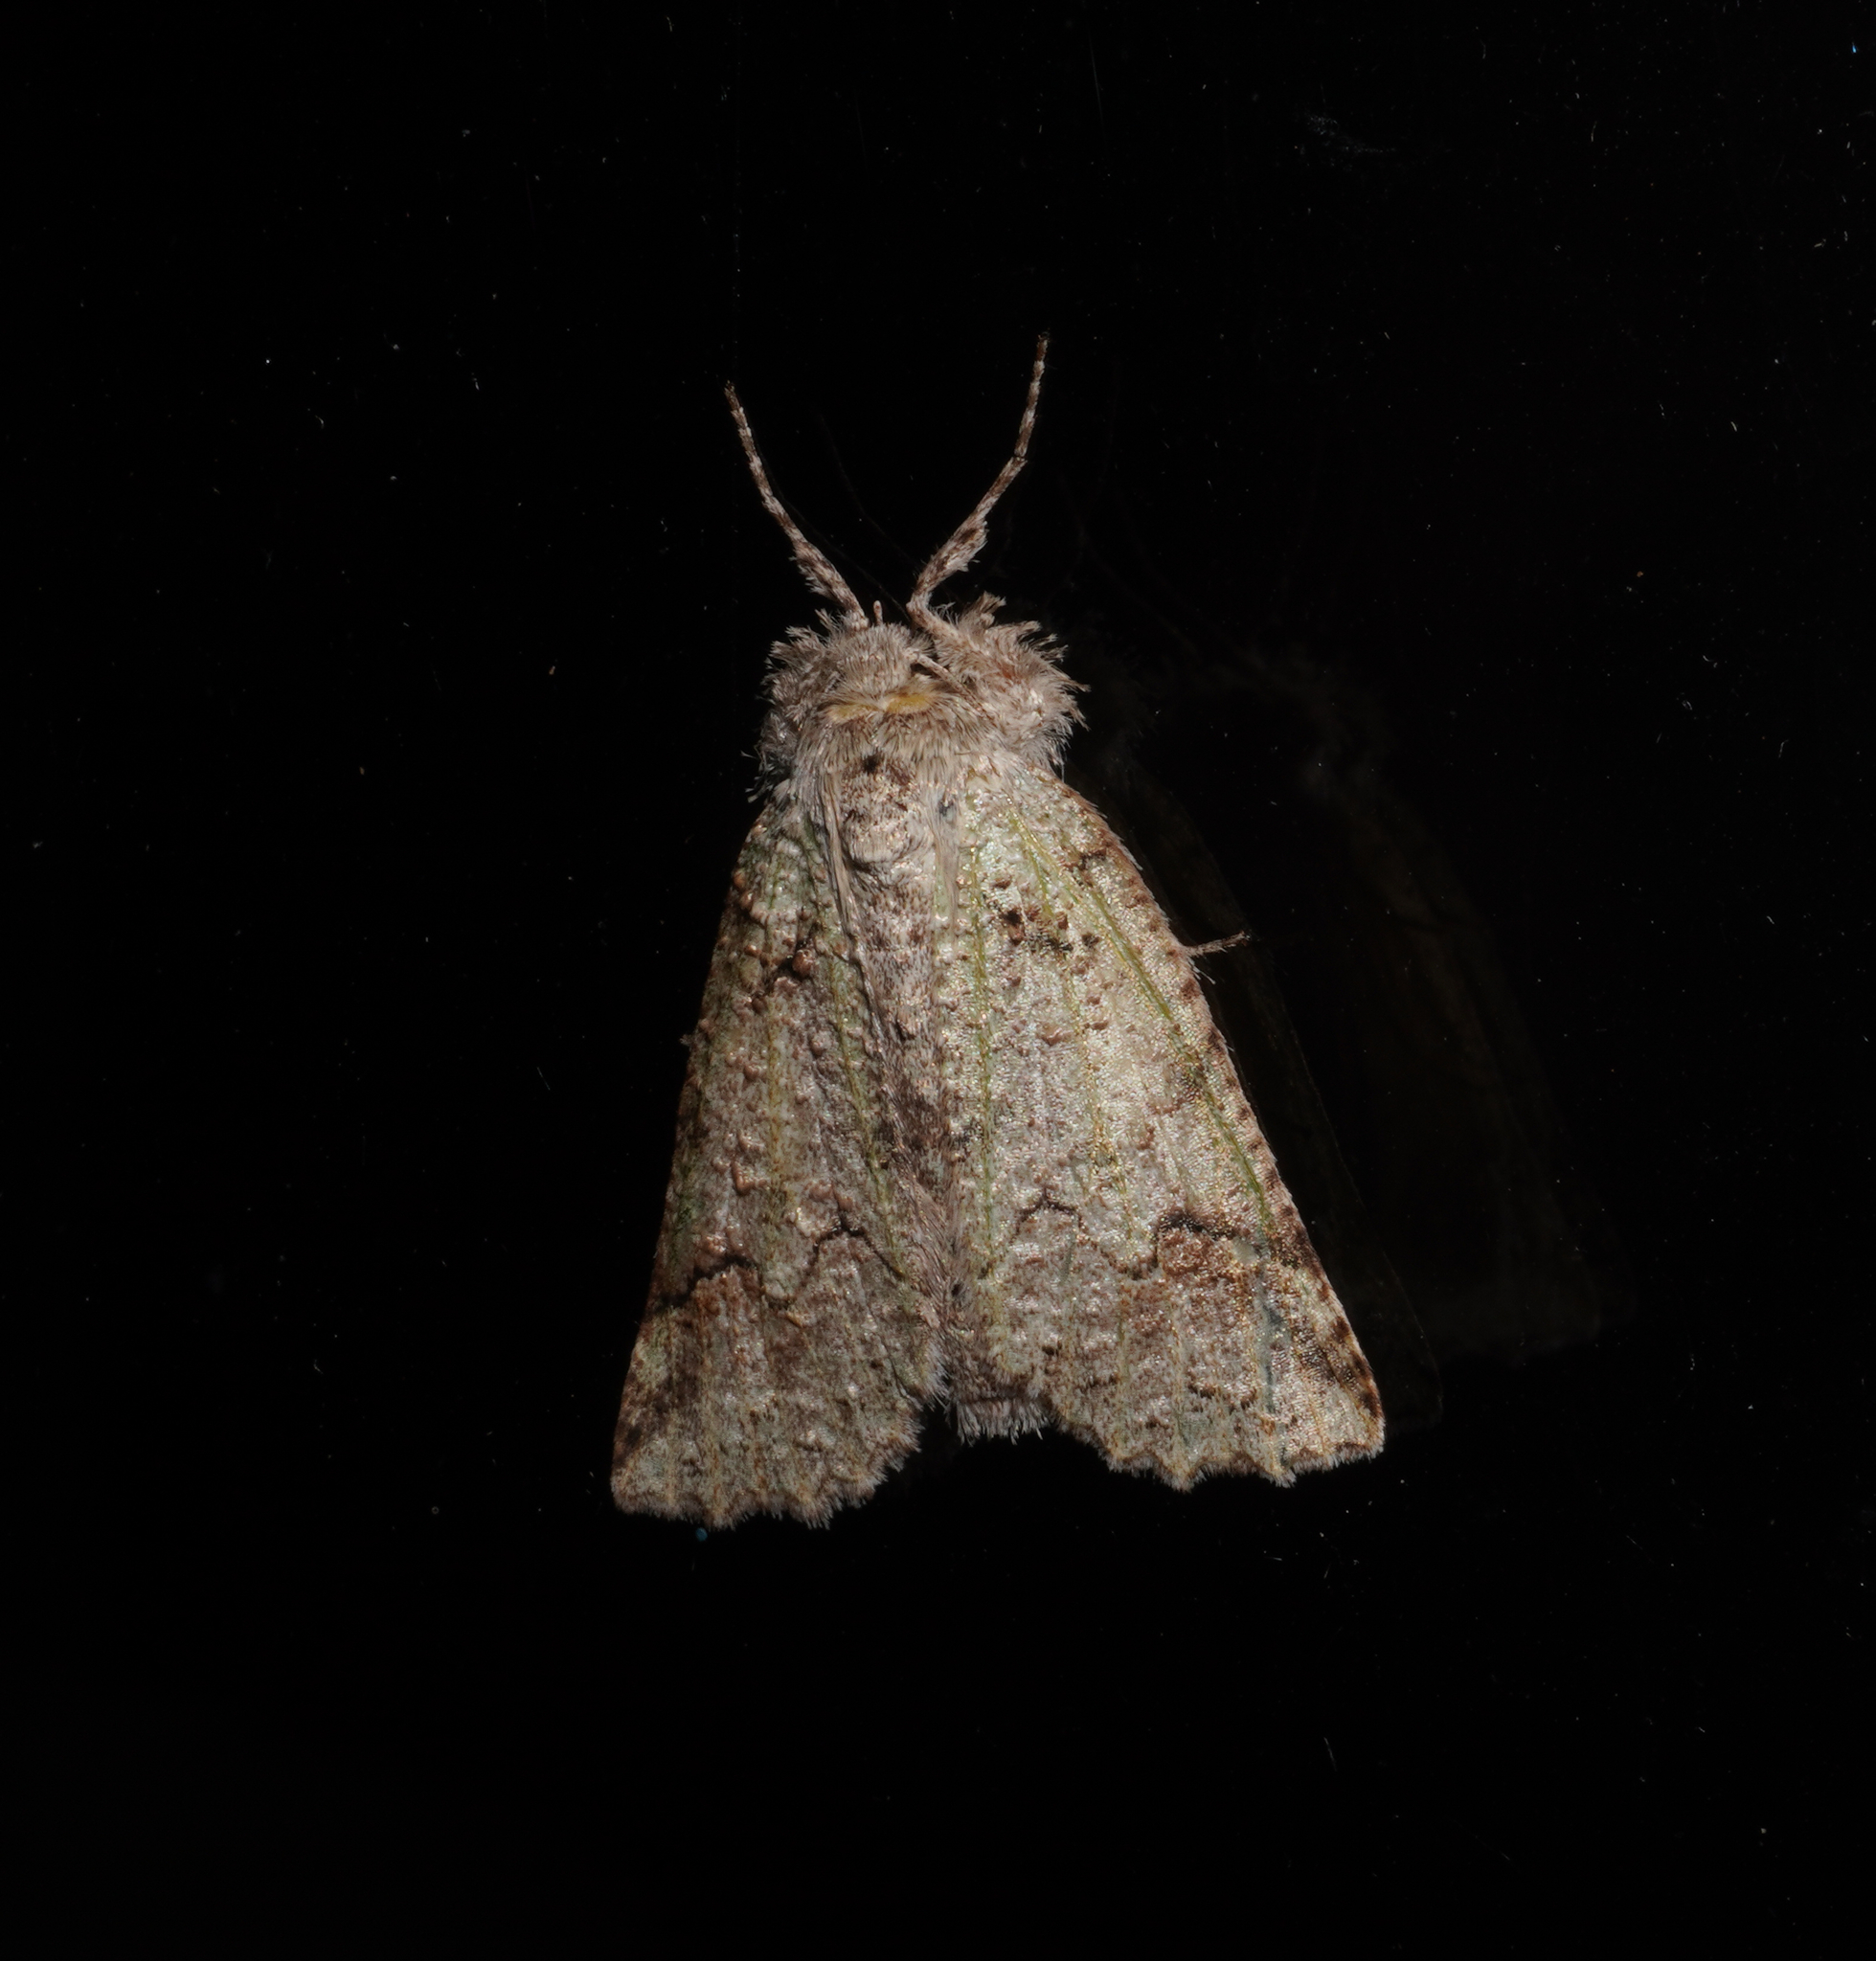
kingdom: Animalia
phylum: Arthropoda
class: Insecta
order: Lepidoptera
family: Geometridae
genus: Declana
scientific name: Declana floccosa
